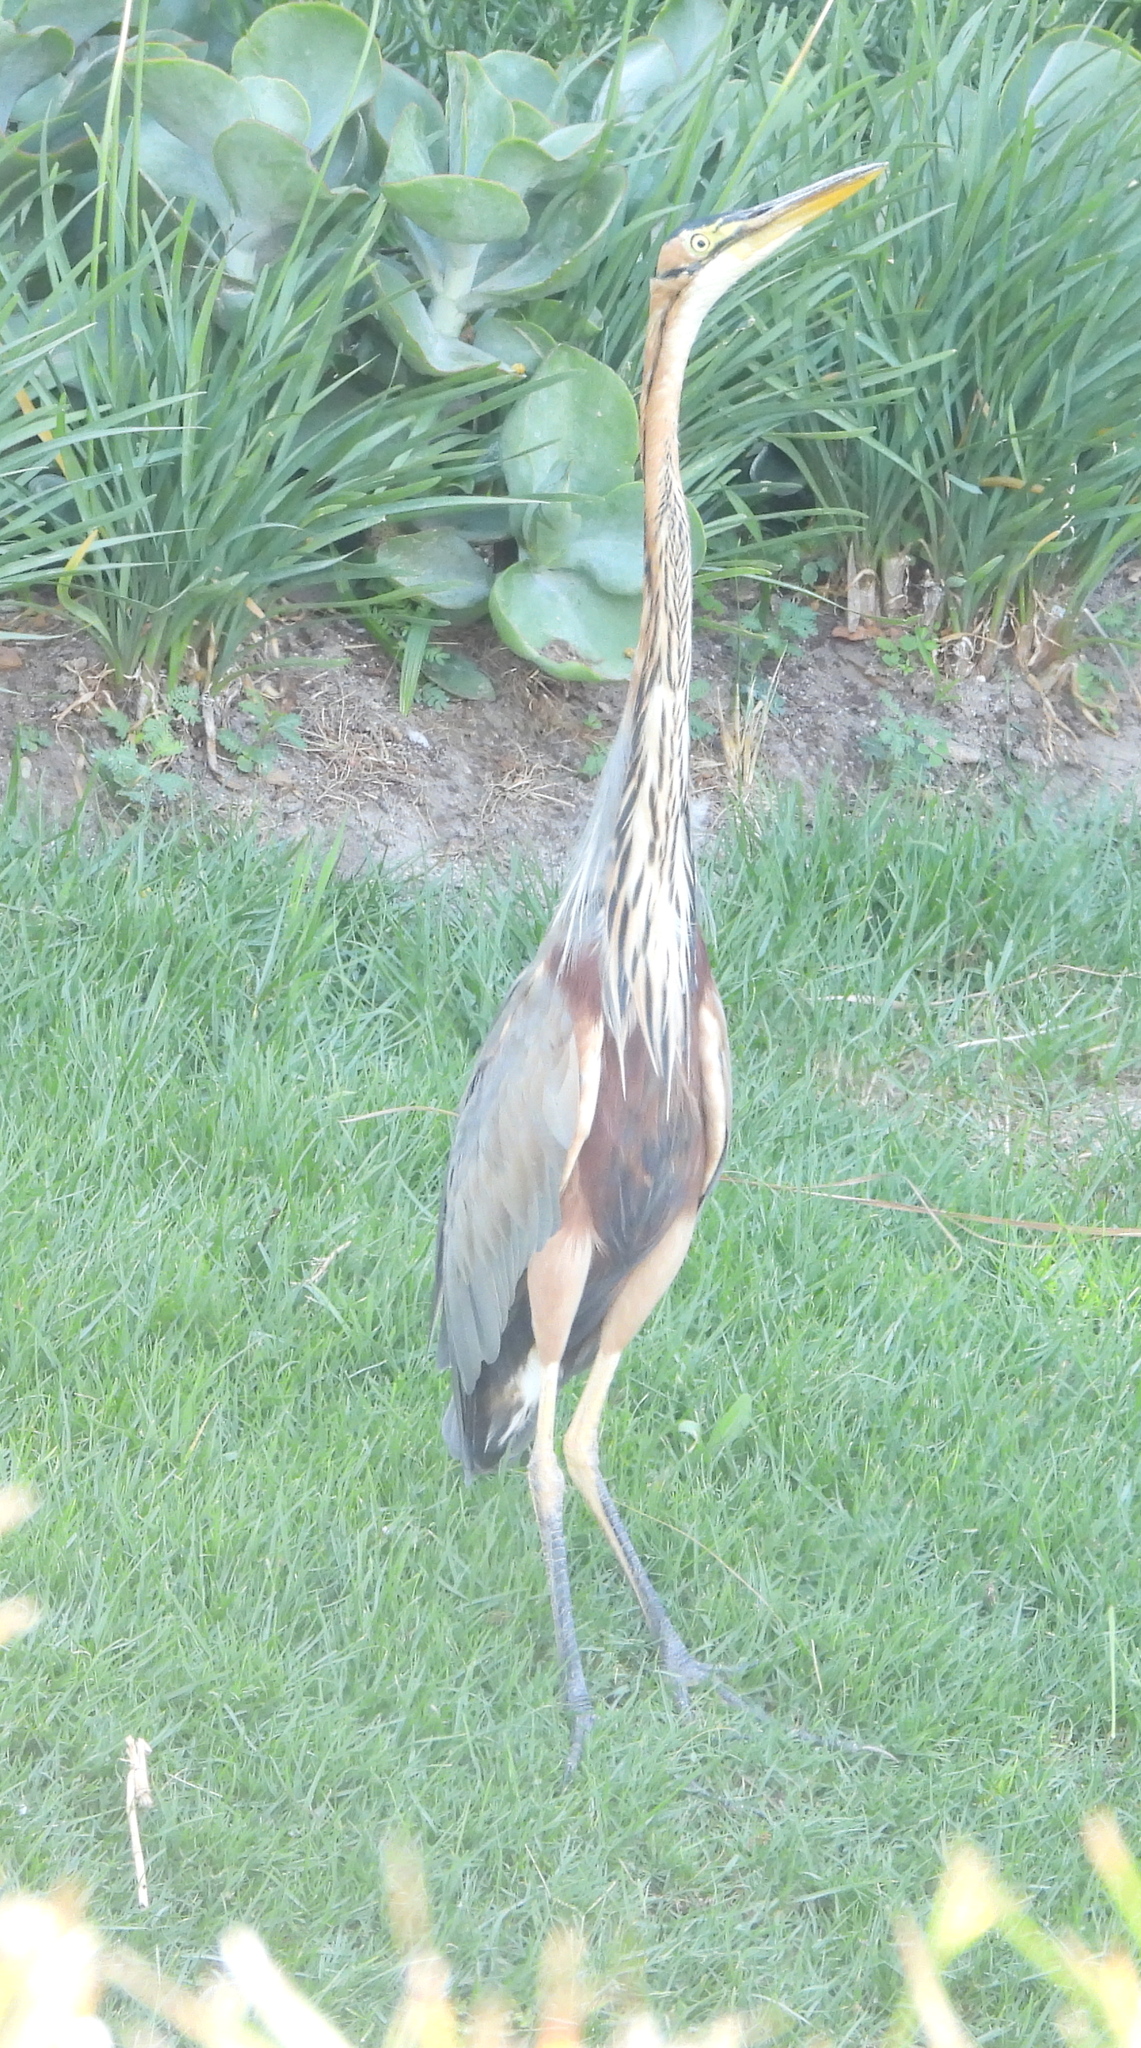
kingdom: Animalia
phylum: Chordata
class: Aves
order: Pelecaniformes
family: Ardeidae
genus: Ardea
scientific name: Ardea purpurea
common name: Purple heron
